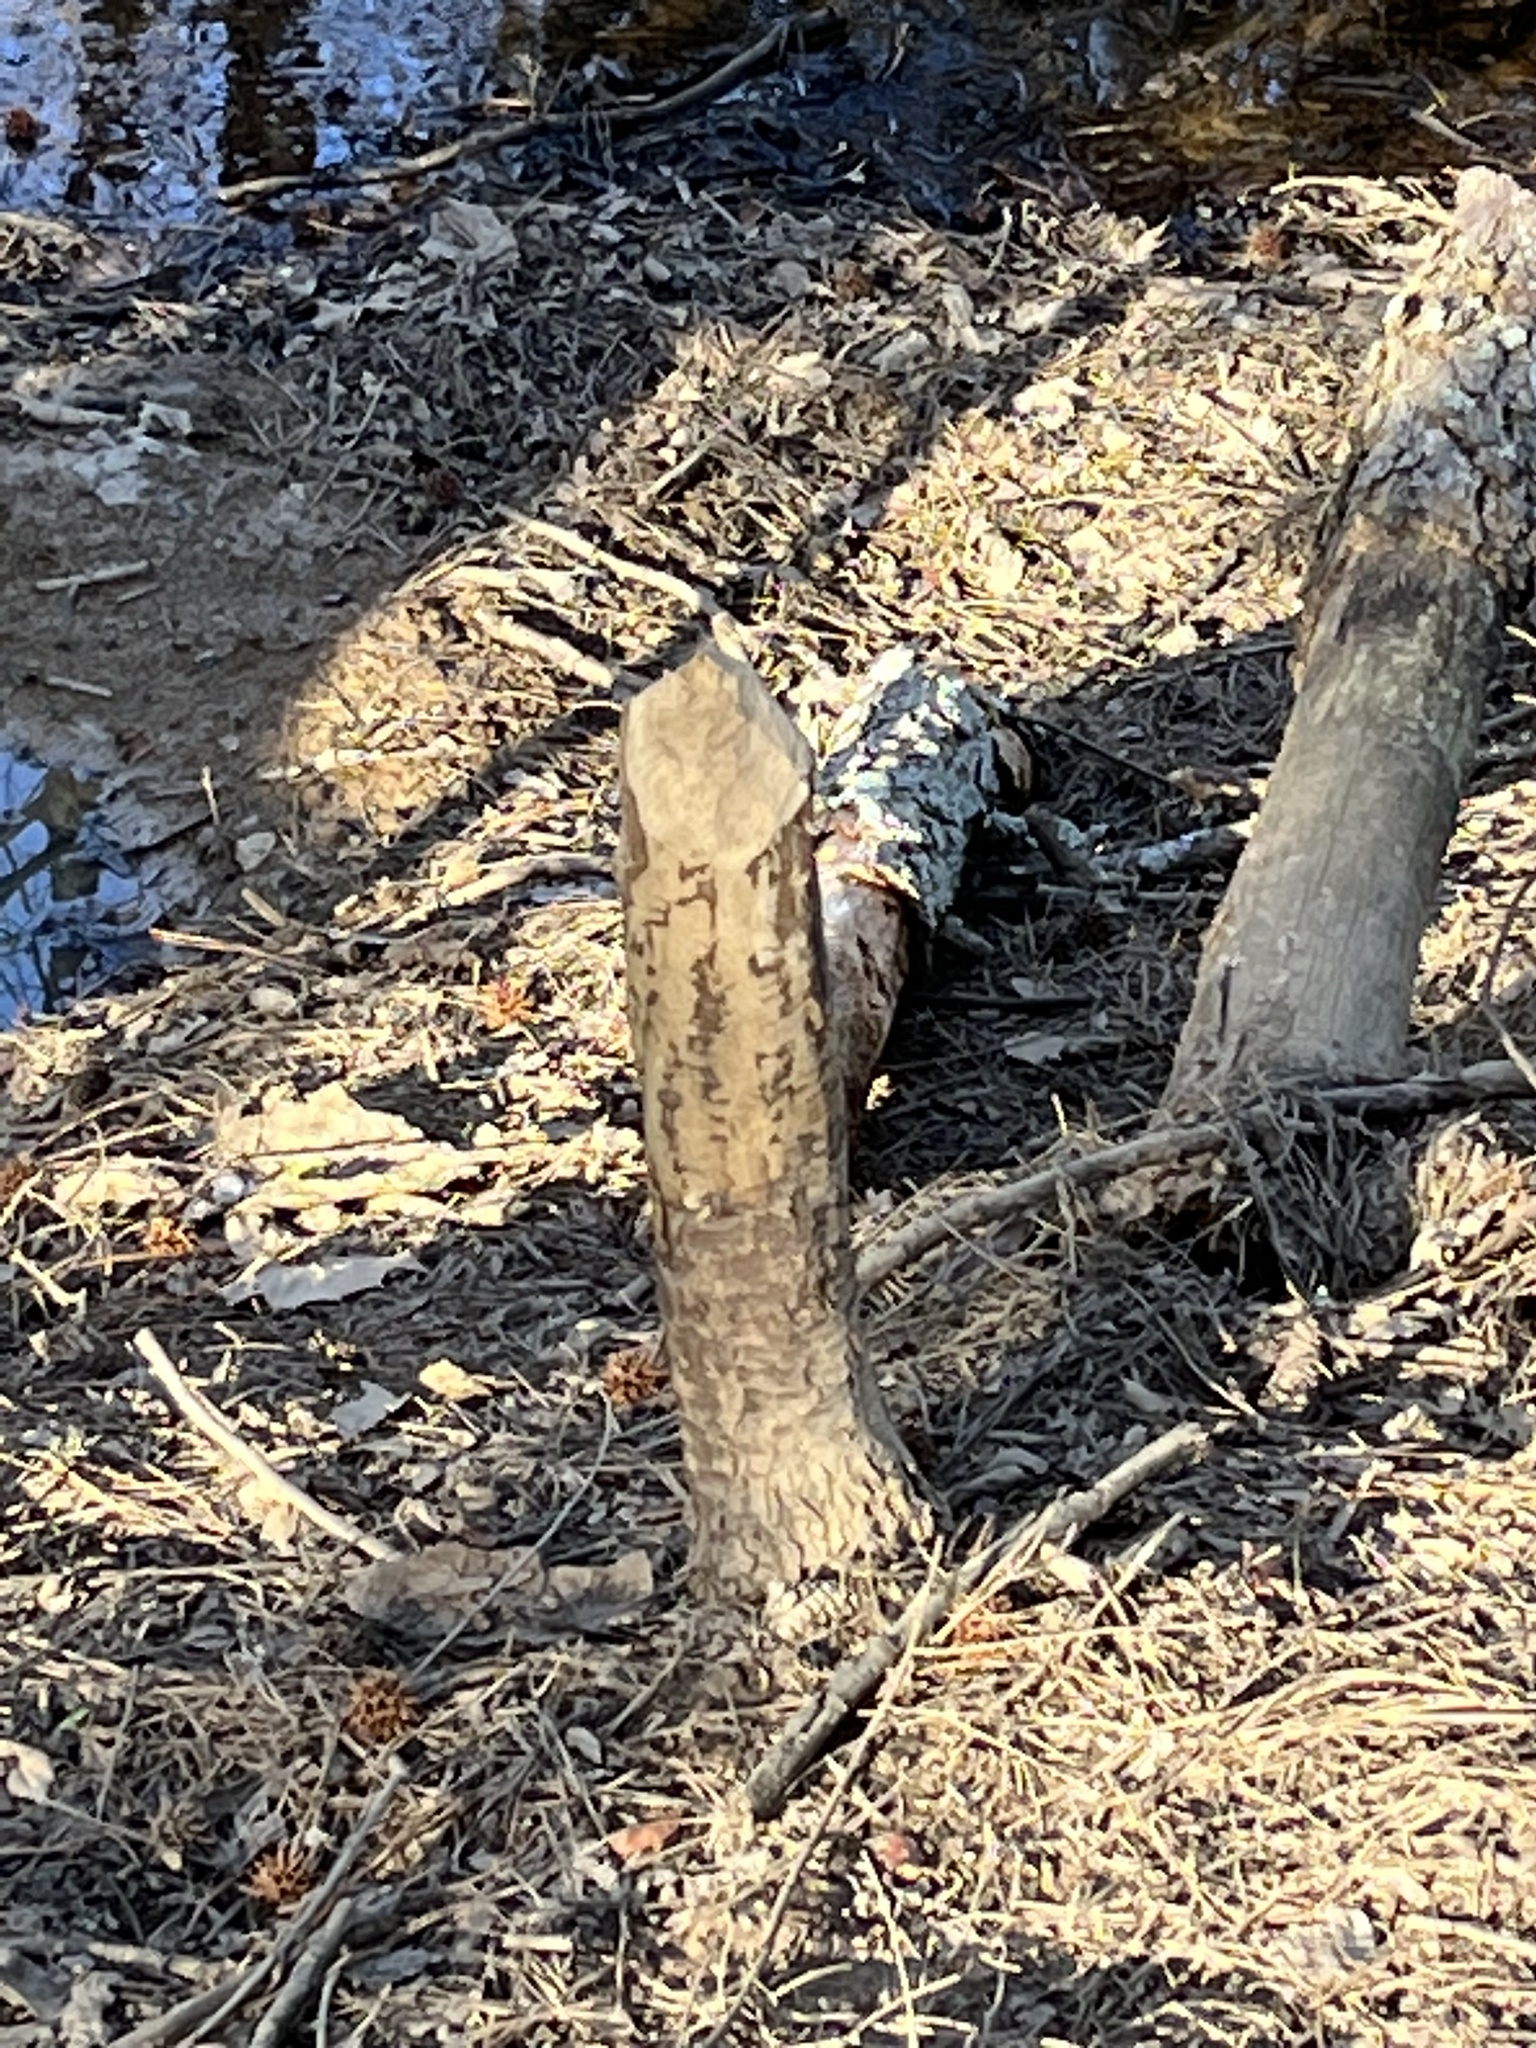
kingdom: Animalia
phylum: Chordata
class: Mammalia
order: Rodentia
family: Castoridae
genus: Castor
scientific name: Castor canadensis
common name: American beaver
